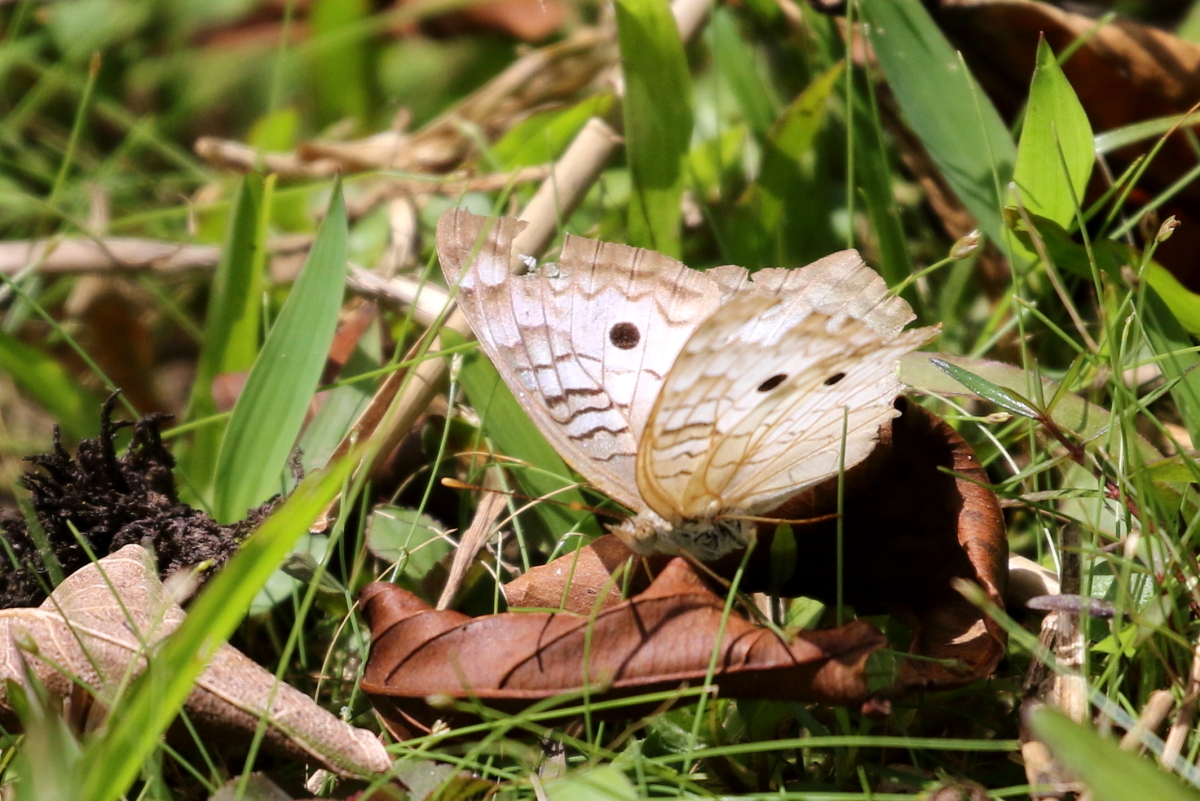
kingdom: Animalia
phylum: Arthropoda
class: Insecta
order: Lepidoptera
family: Nymphalidae
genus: Anartia
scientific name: Anartia jatrophae
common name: White peacock
